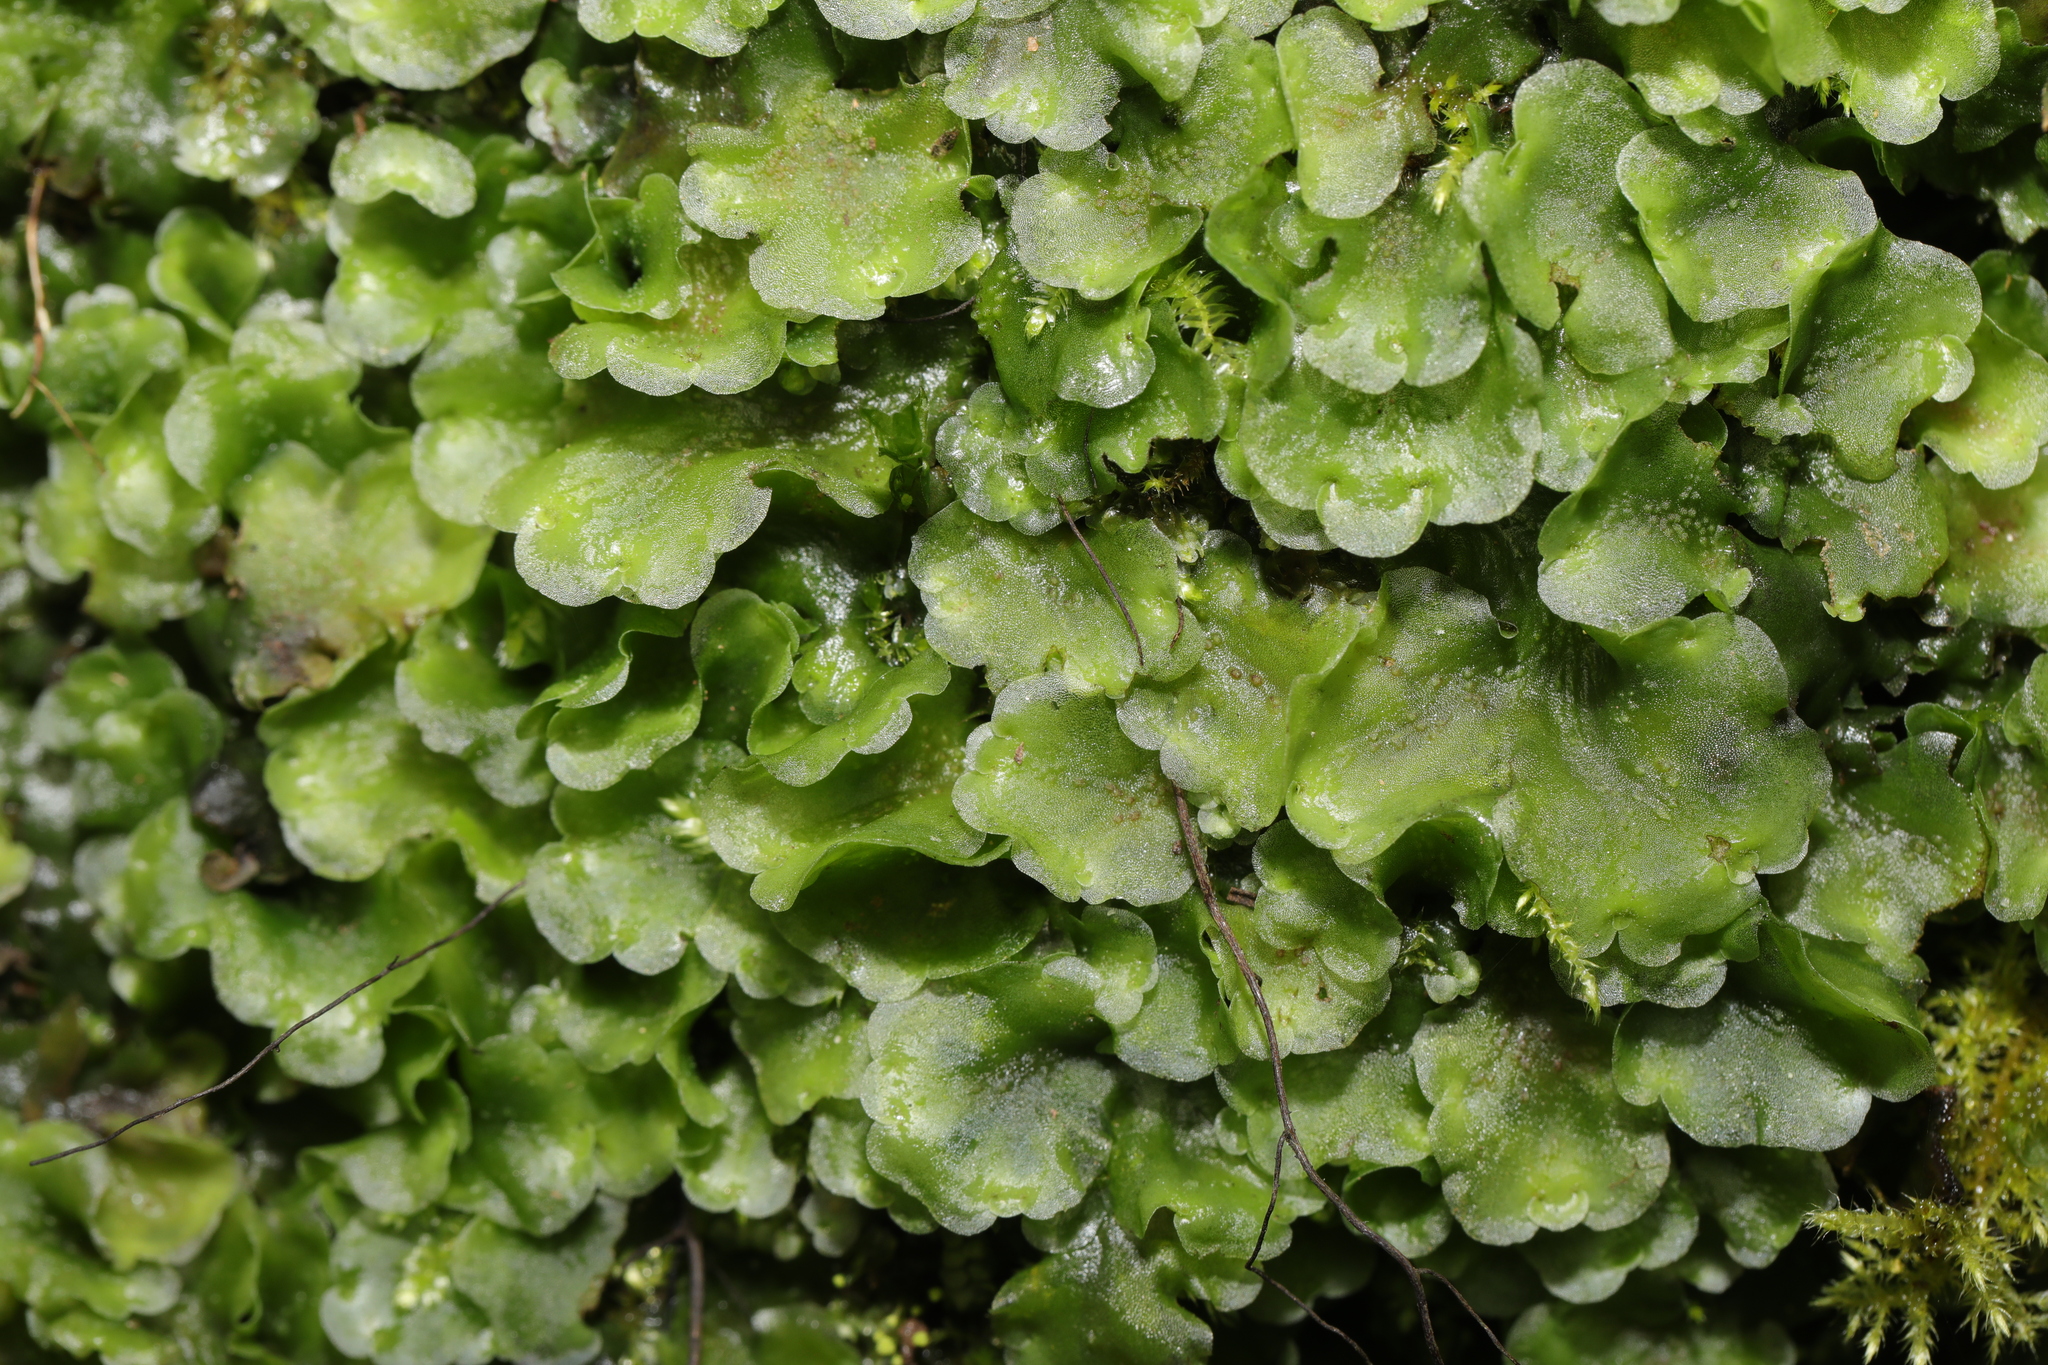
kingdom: Plantae
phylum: Marchantiophyta
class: Jungermanniopsida
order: Pelliales
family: Pelliaceae
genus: Pellia
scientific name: Pellia epiphylla
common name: Common pellia
